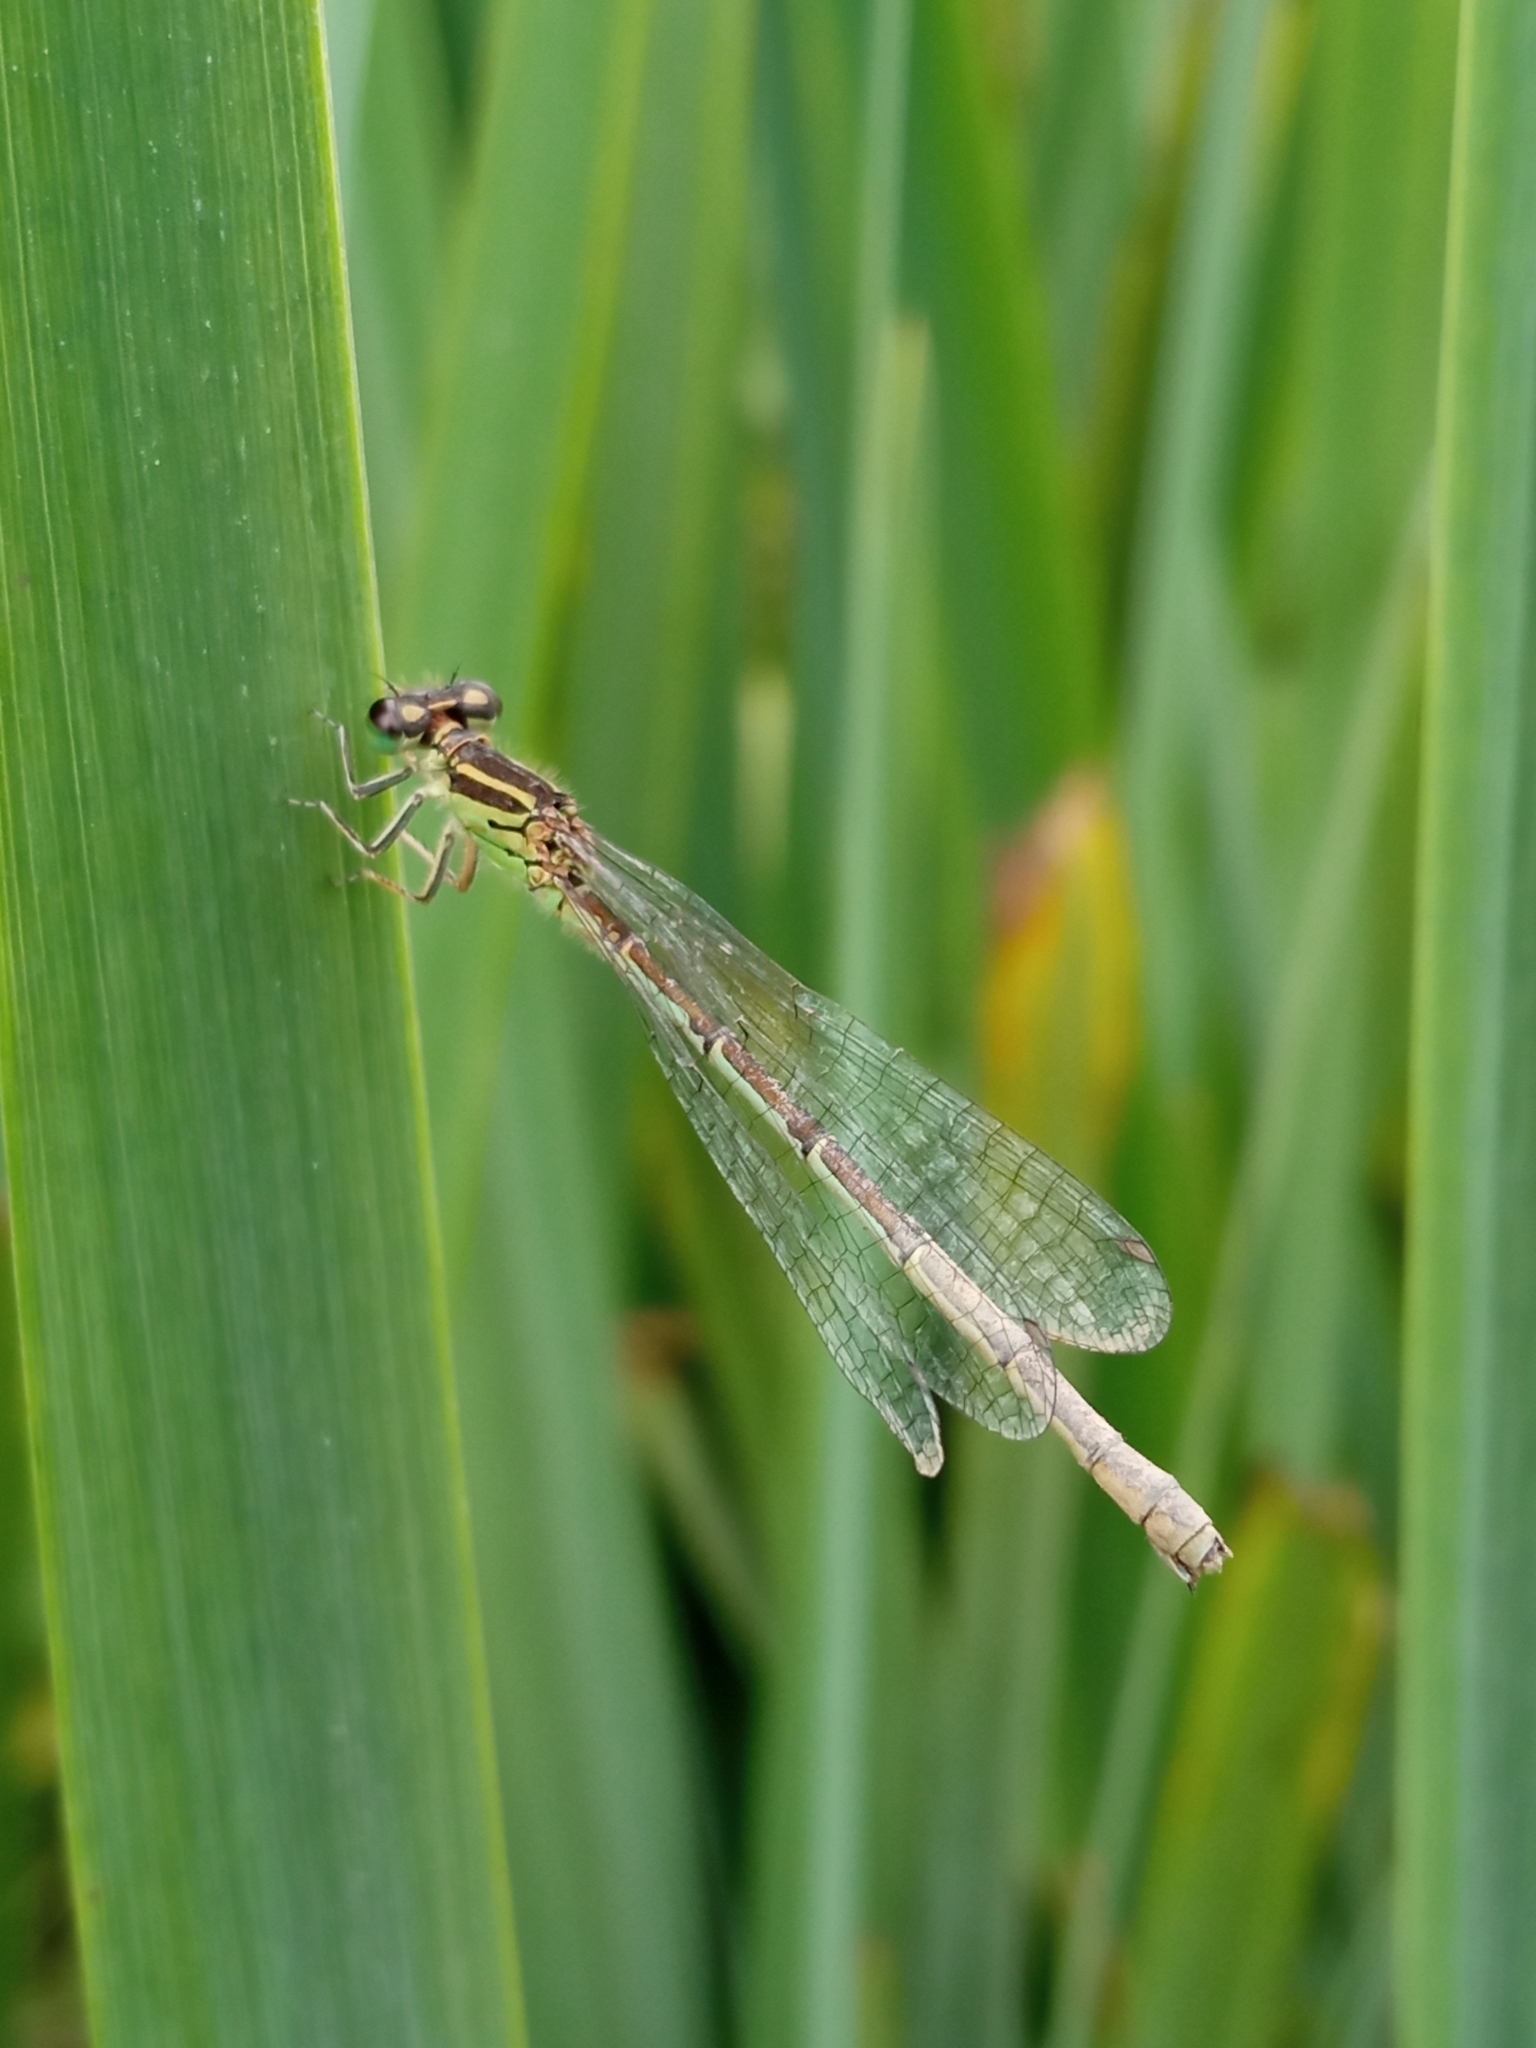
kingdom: Animalia
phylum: Arthropoda
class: Insecta
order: Odonata
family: Coenagrionidae
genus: Coenagrion
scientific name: Coenagrion mercuriale
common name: Southern damselfly
